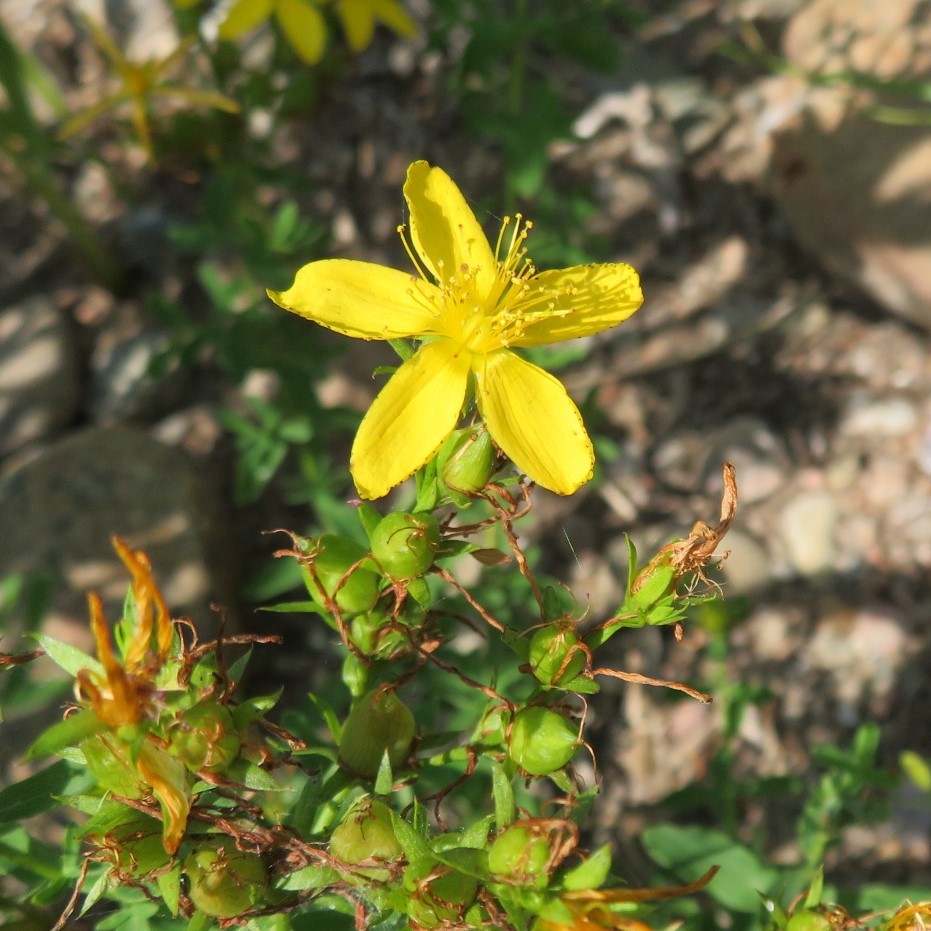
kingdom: Plantae
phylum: Tracheophyta
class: Magnoliopsida
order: Malpighiales
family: Hypericaceae
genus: Hypericum
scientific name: Hypericum perforatum
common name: Common st. johnswort
